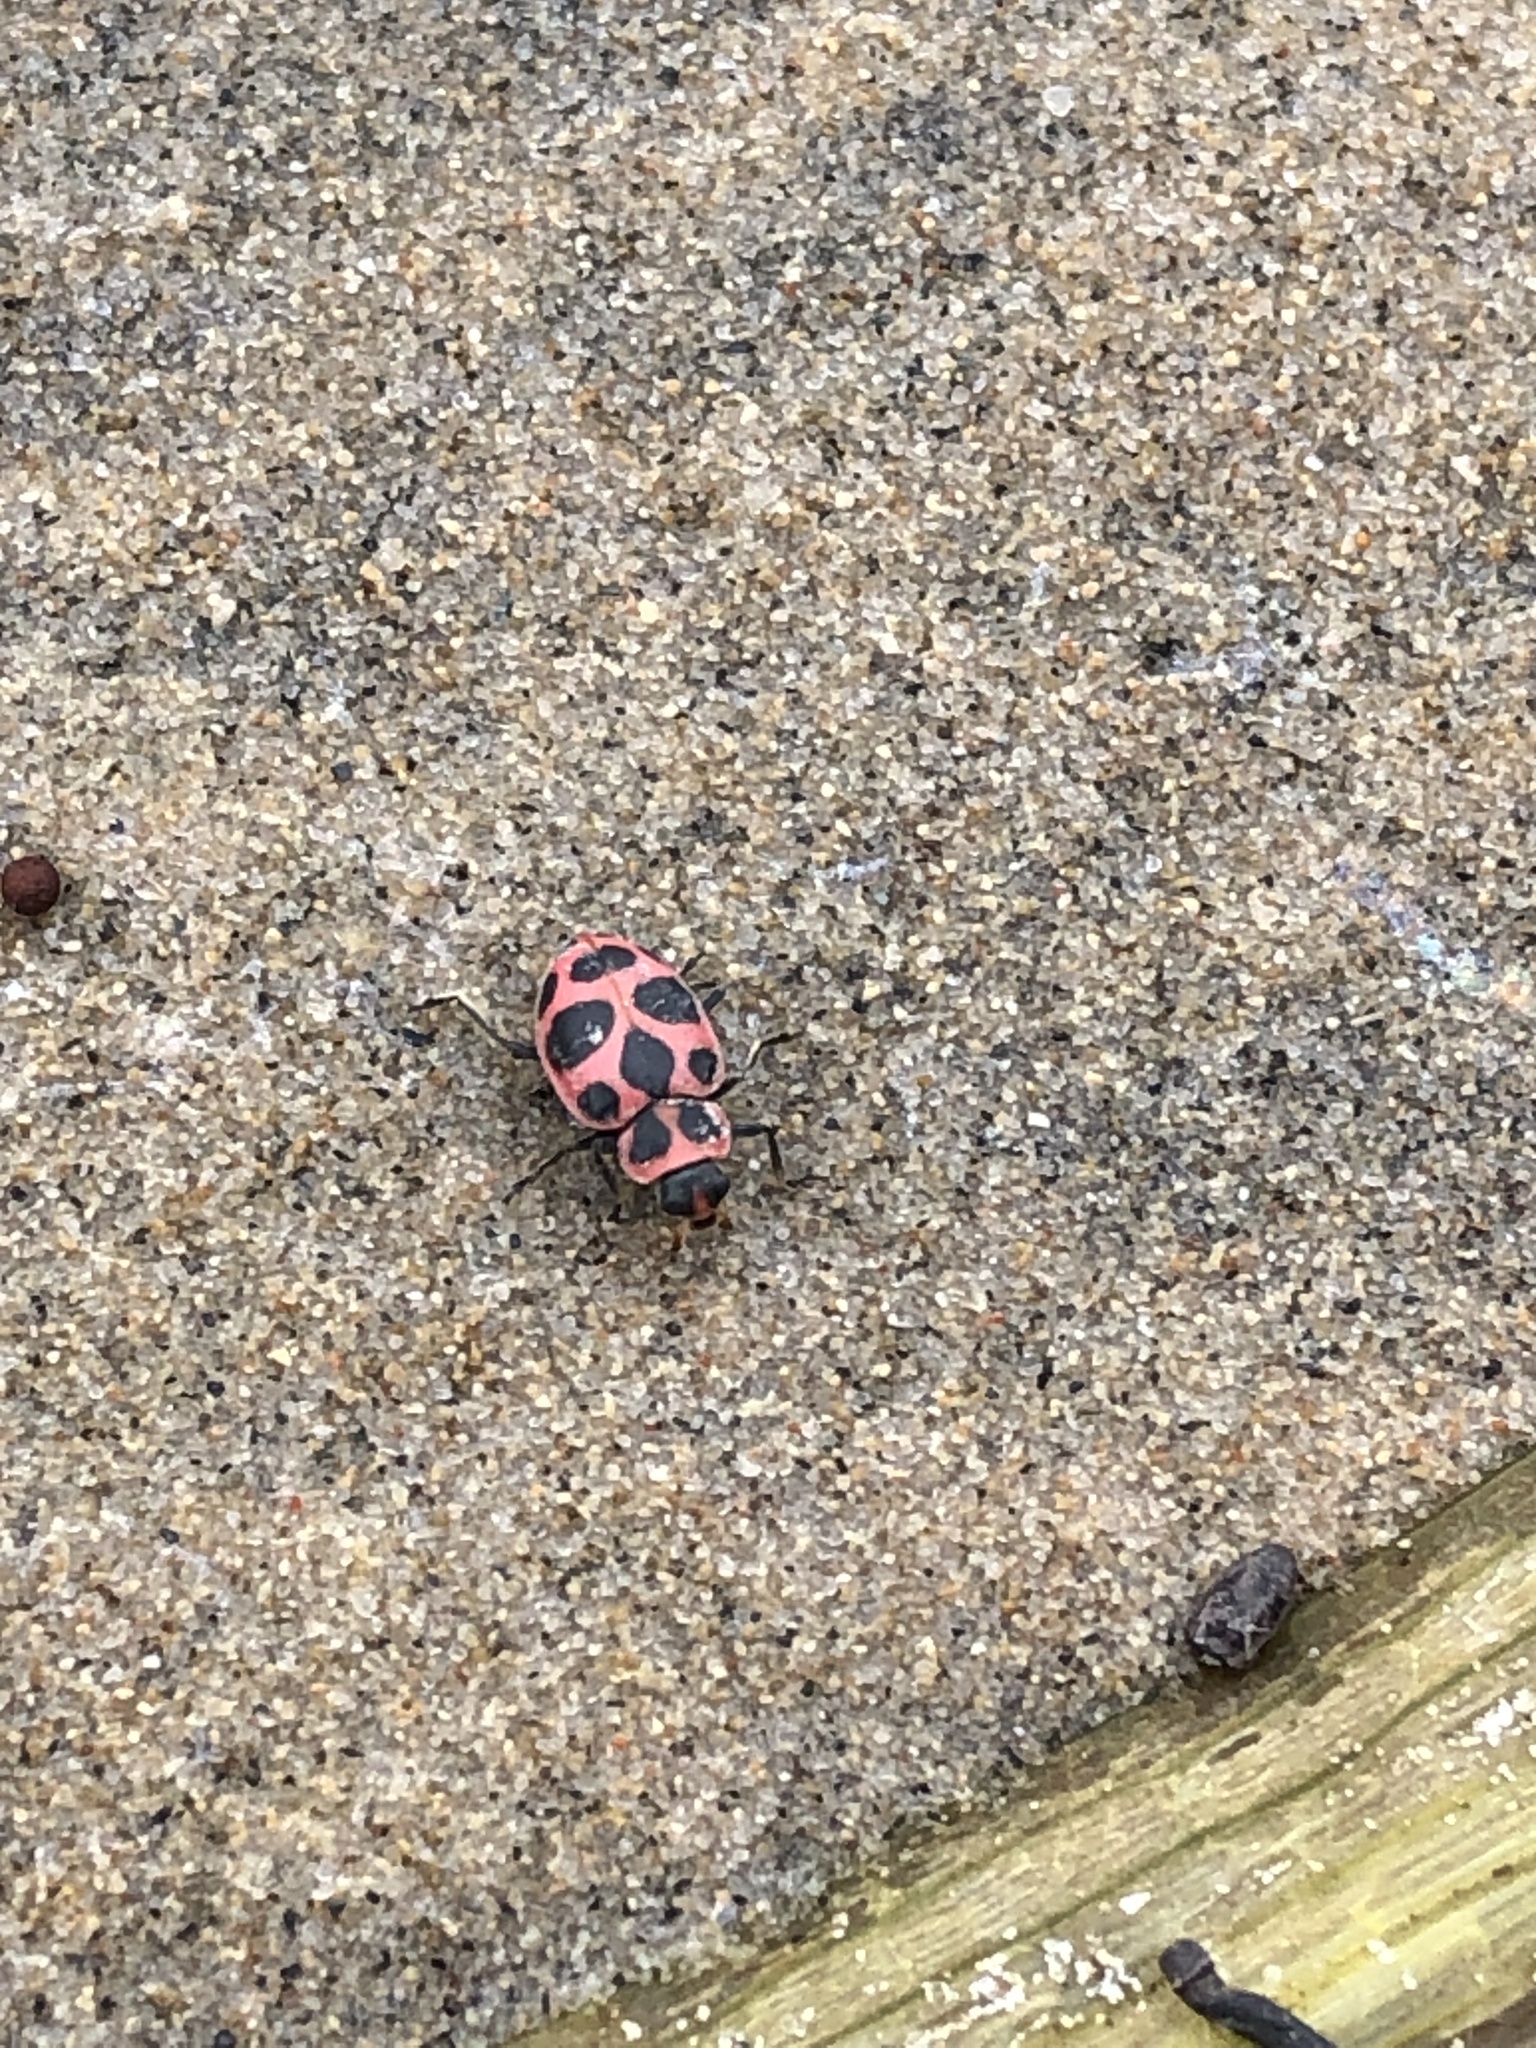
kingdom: Animalia
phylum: Arthropoda
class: Insecta
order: Coleoptera
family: Coccinellidae
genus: Coleomegilla
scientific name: Coleomegilla maculata
